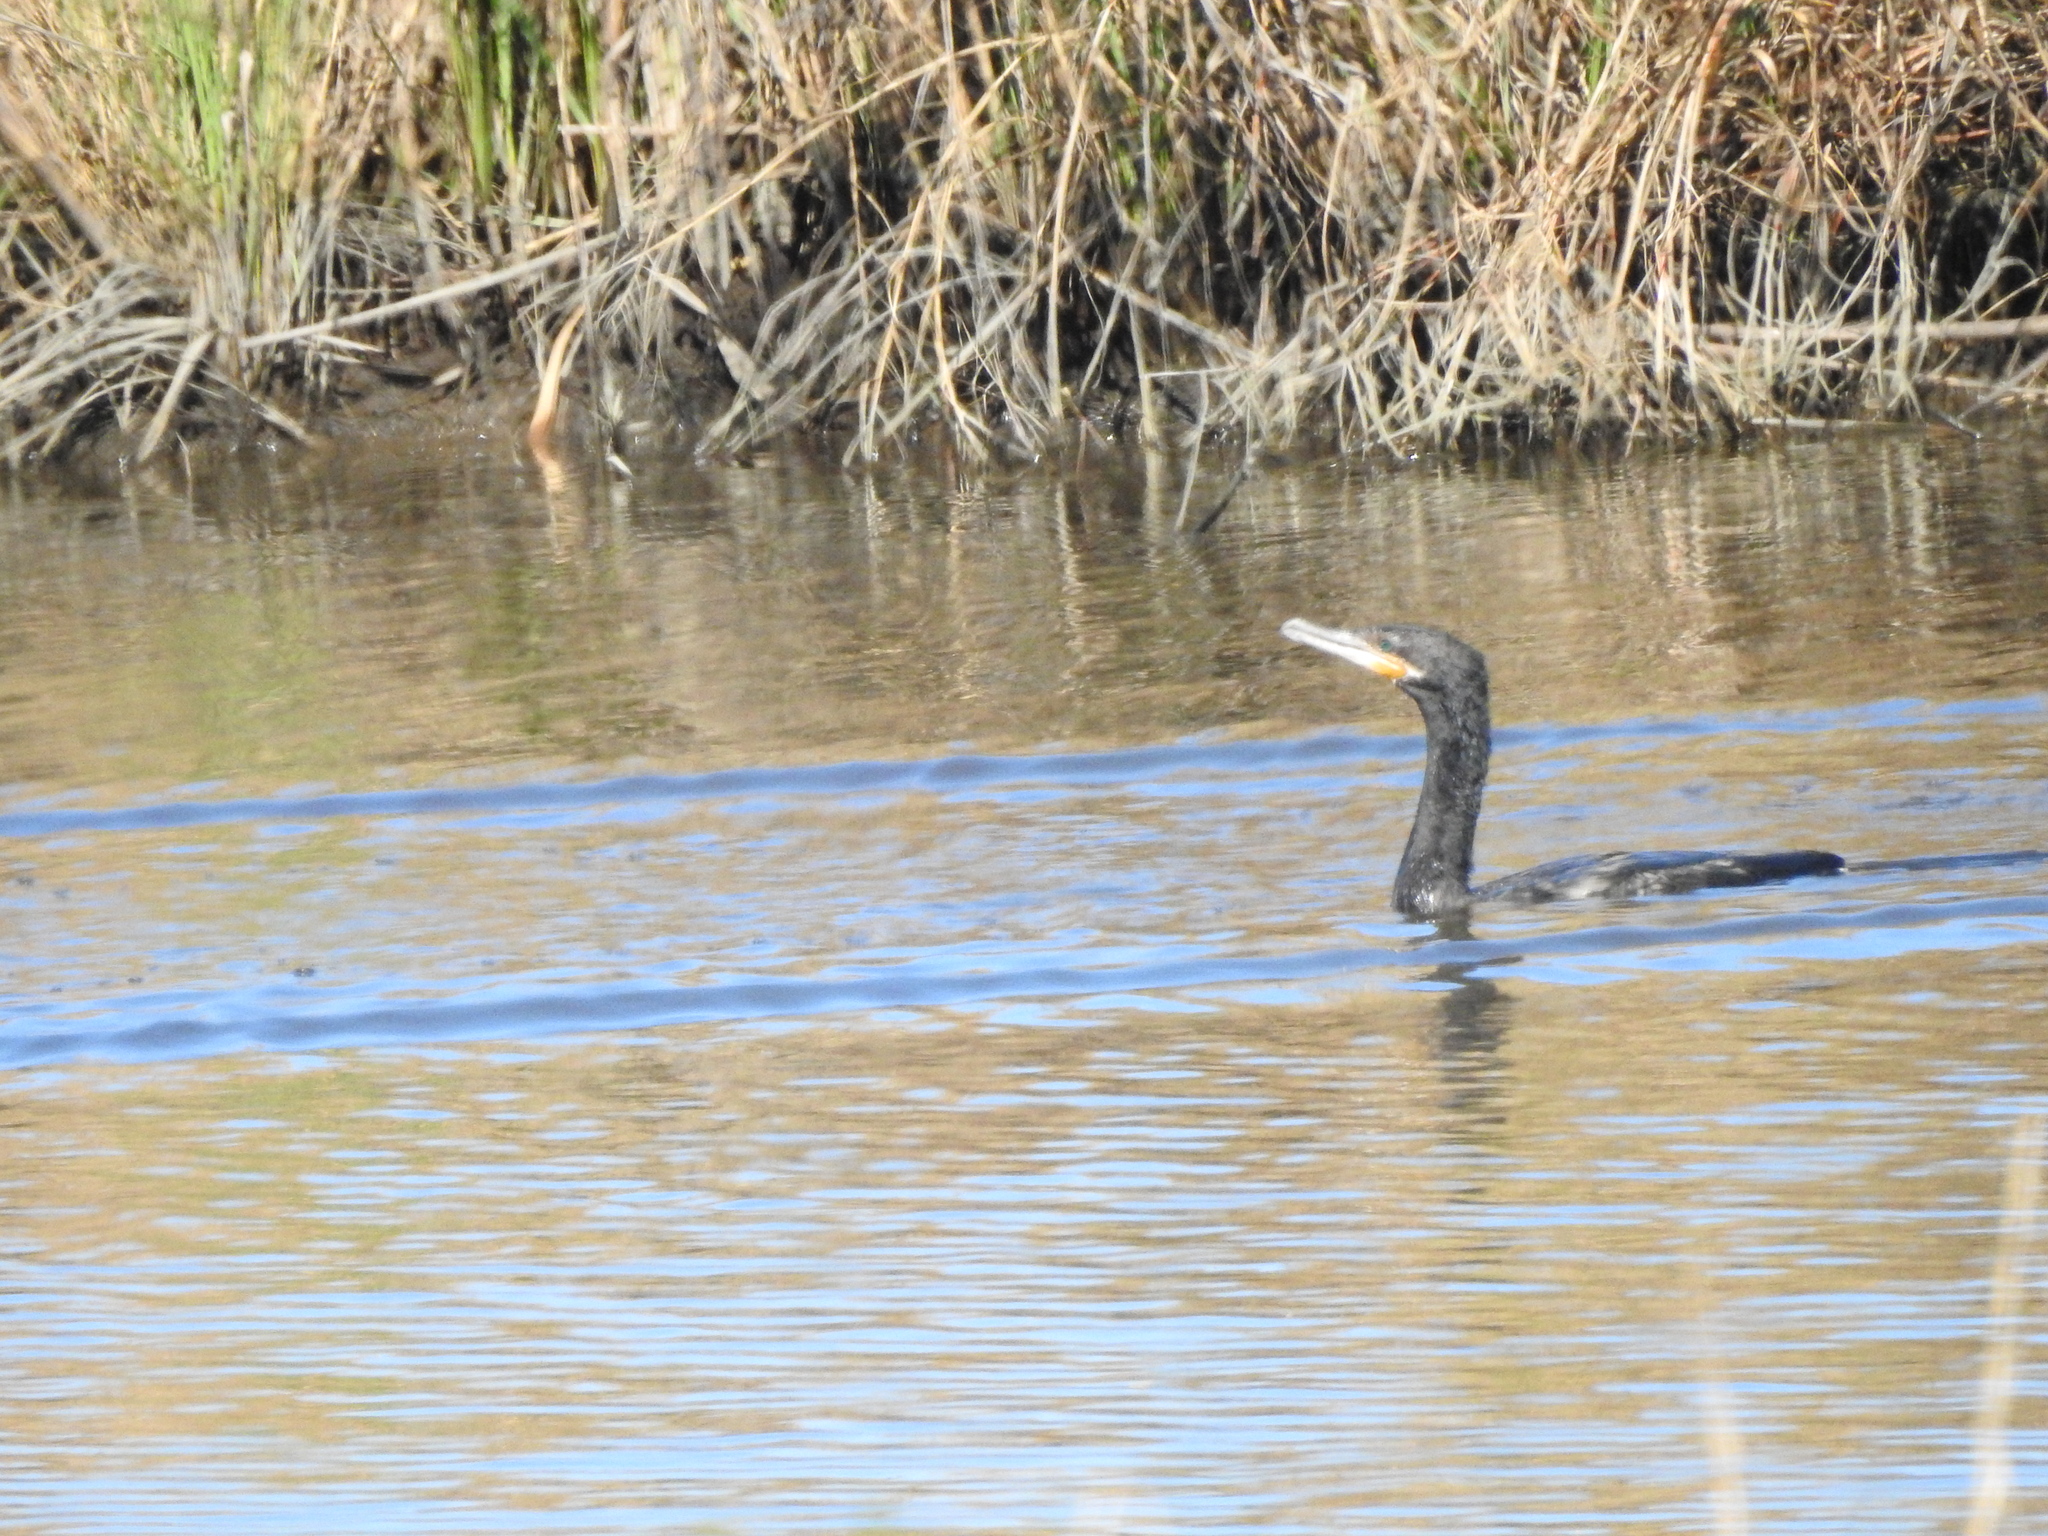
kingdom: Animalia
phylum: Chordata
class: Aves
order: Suliformes
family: Phalacrocoracidae
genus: Phalacrocorax
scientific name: Phalacrocorax brasilianus
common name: Neotropic cormorant
